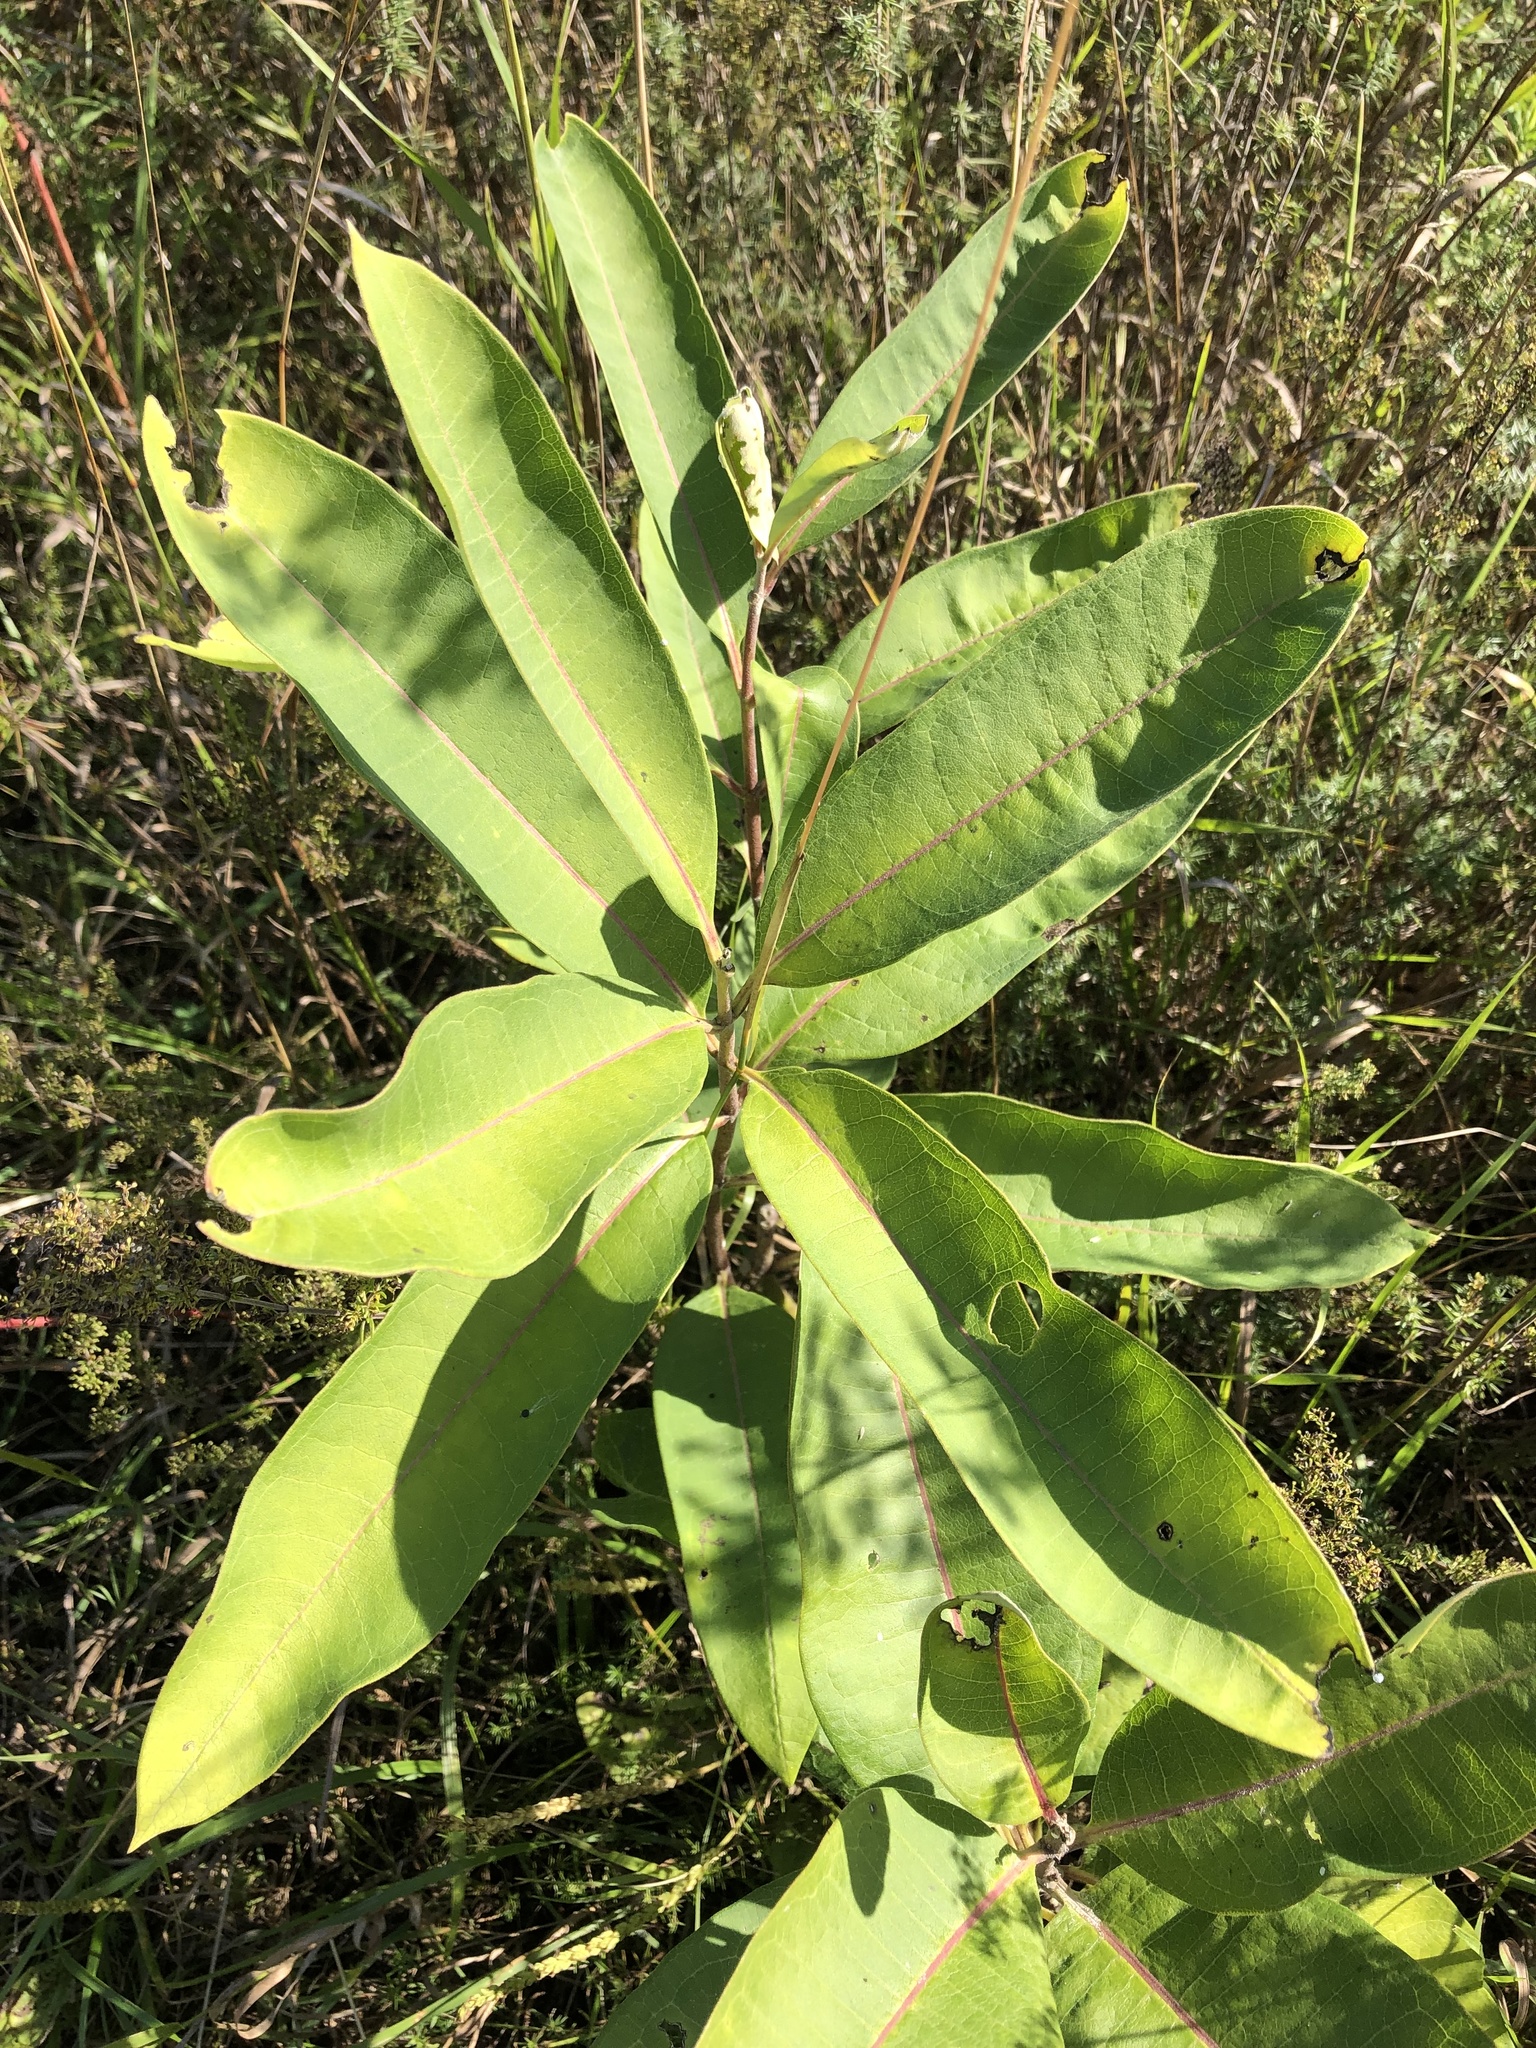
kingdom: Plantae
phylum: Tracheophyta
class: Magnoliopsida
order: Gentianales
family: Apocynaceae
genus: Asclepias
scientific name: Asclepias syriaca
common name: Common milkweed
